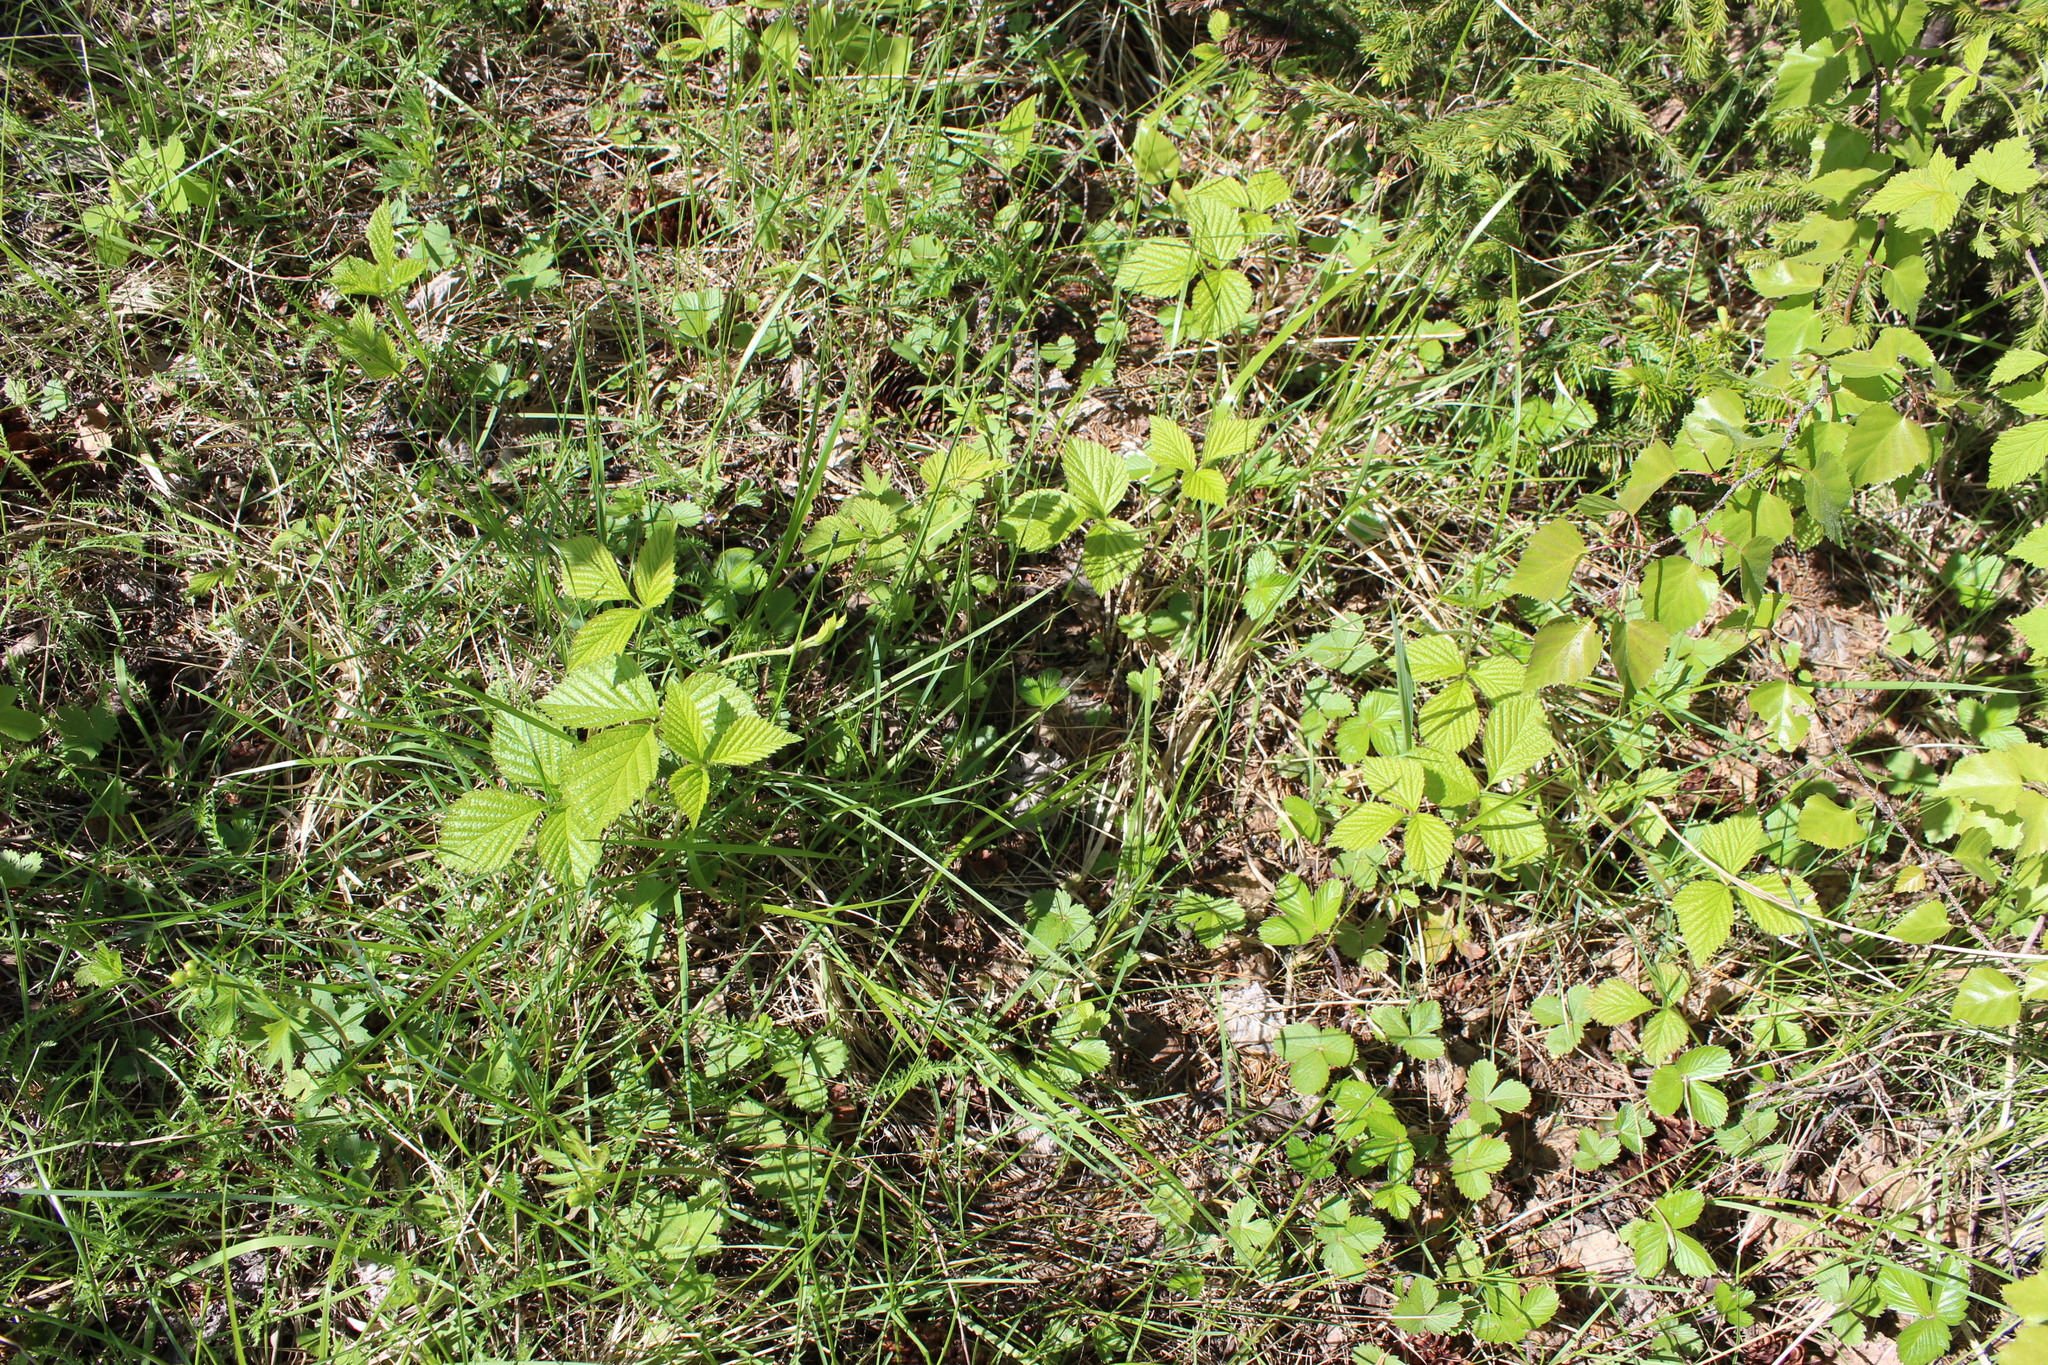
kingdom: Plantae
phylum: Tracheophyta
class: Magnoliopsida
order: Rosales
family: Rosaceae
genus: Rubus
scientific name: Rubus saxatilis
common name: Stone bramble
